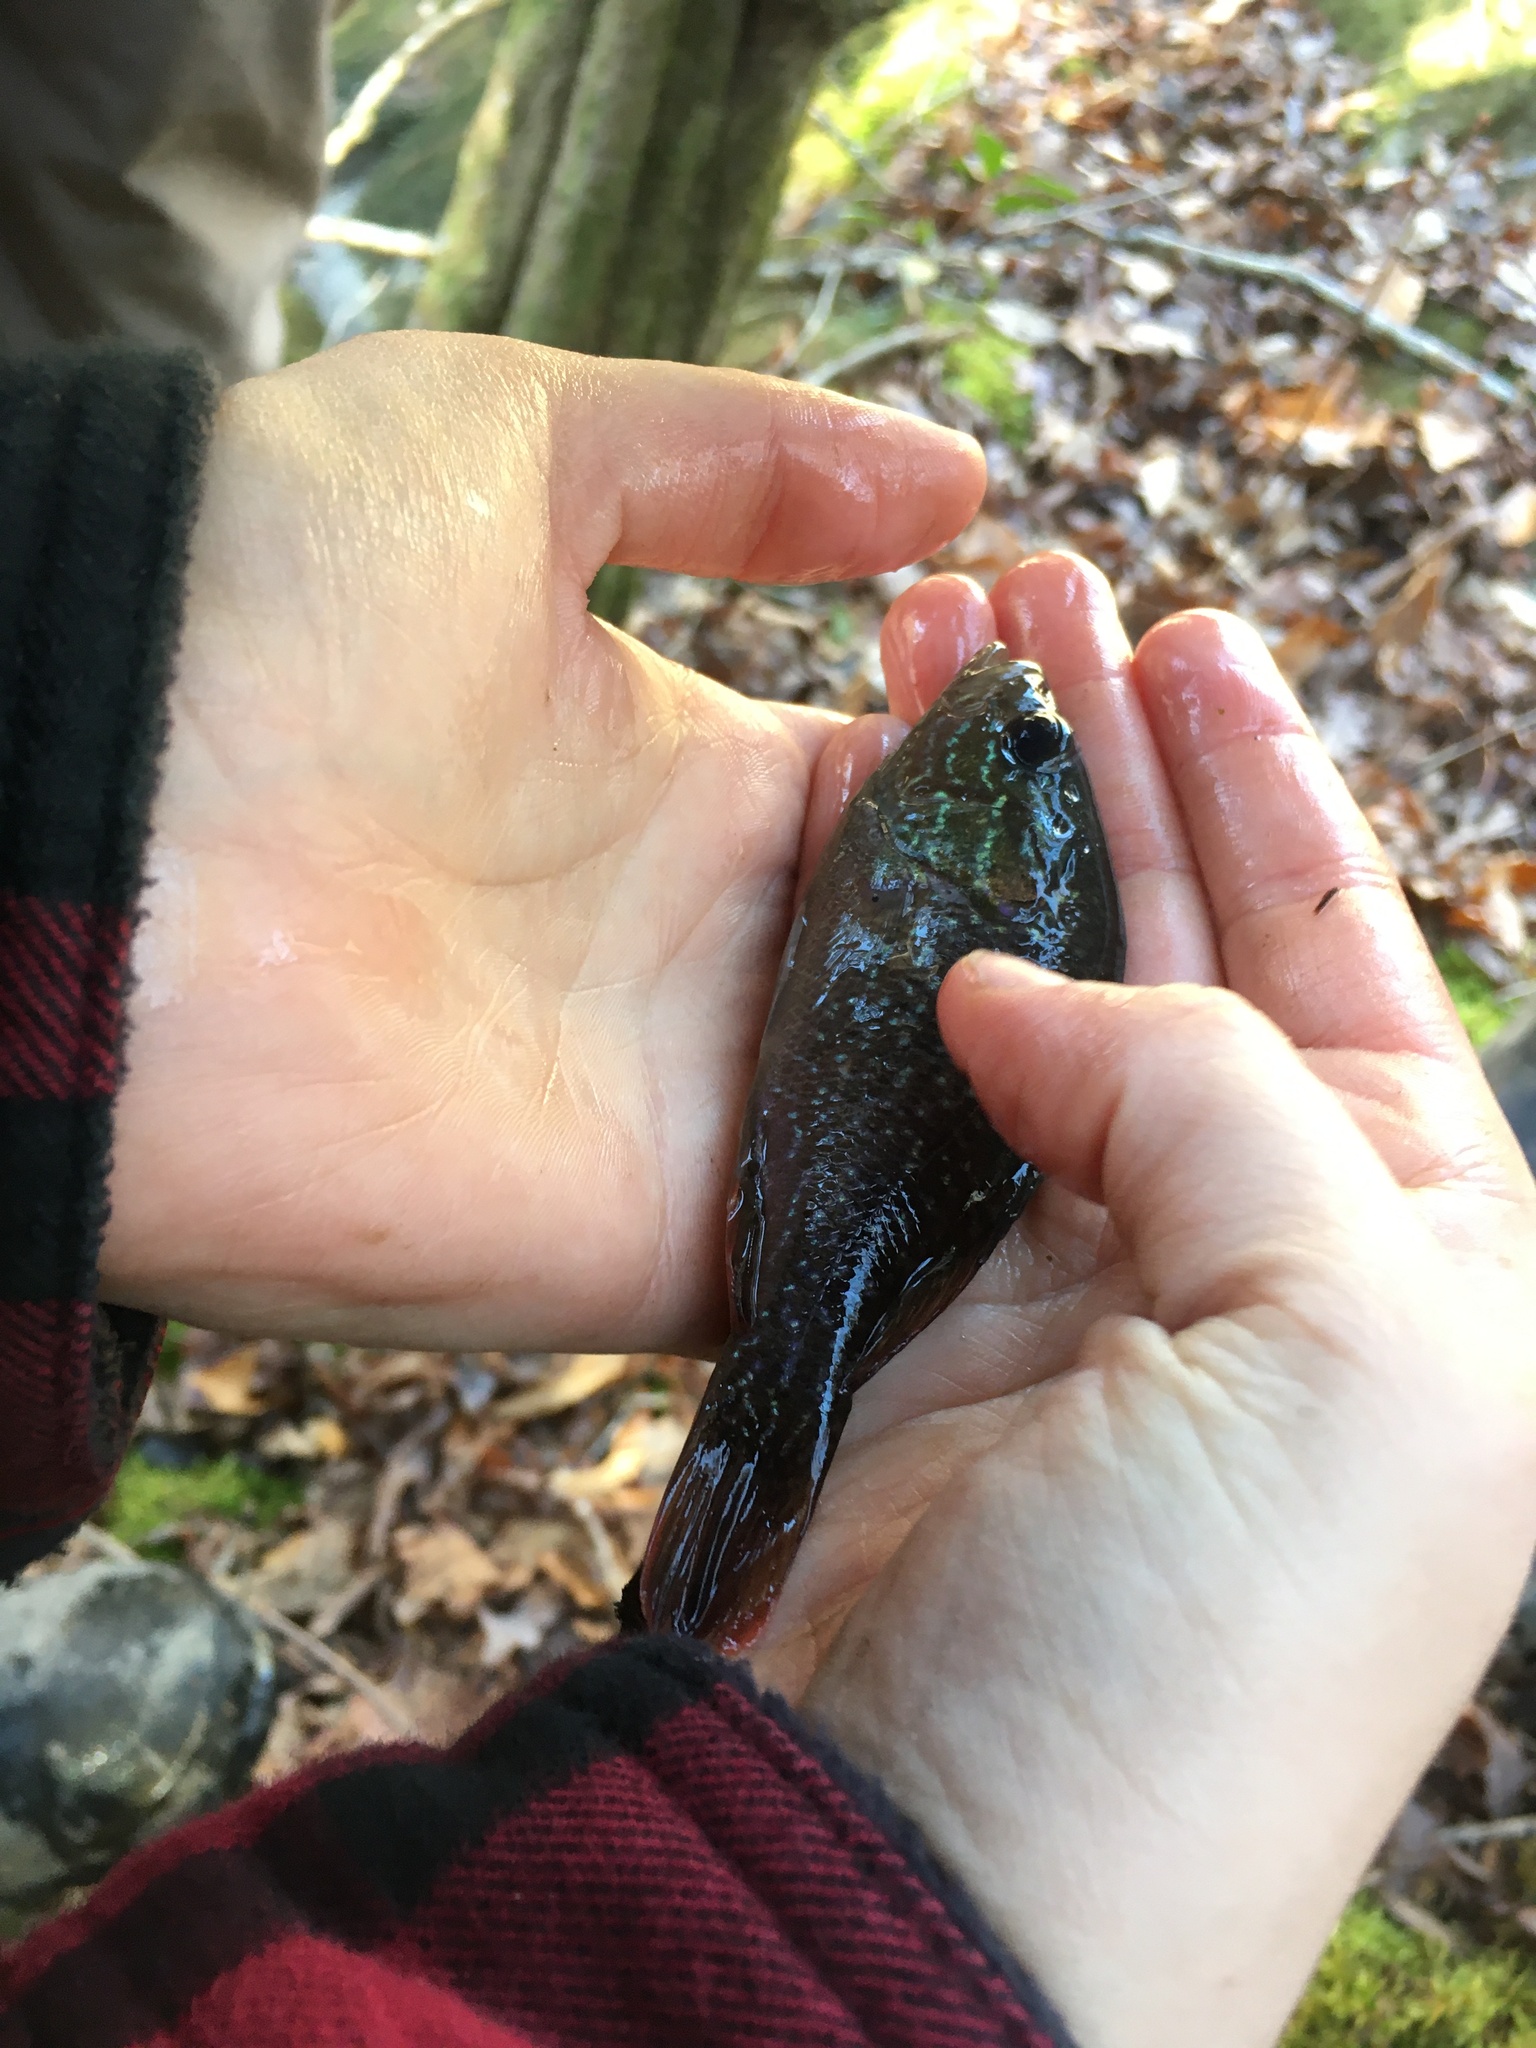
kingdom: Animalia
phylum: Chordata
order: Perciformes
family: Centrarchidae
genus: Lepomis
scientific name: Lepomis cyanellus
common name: Green sunfish
